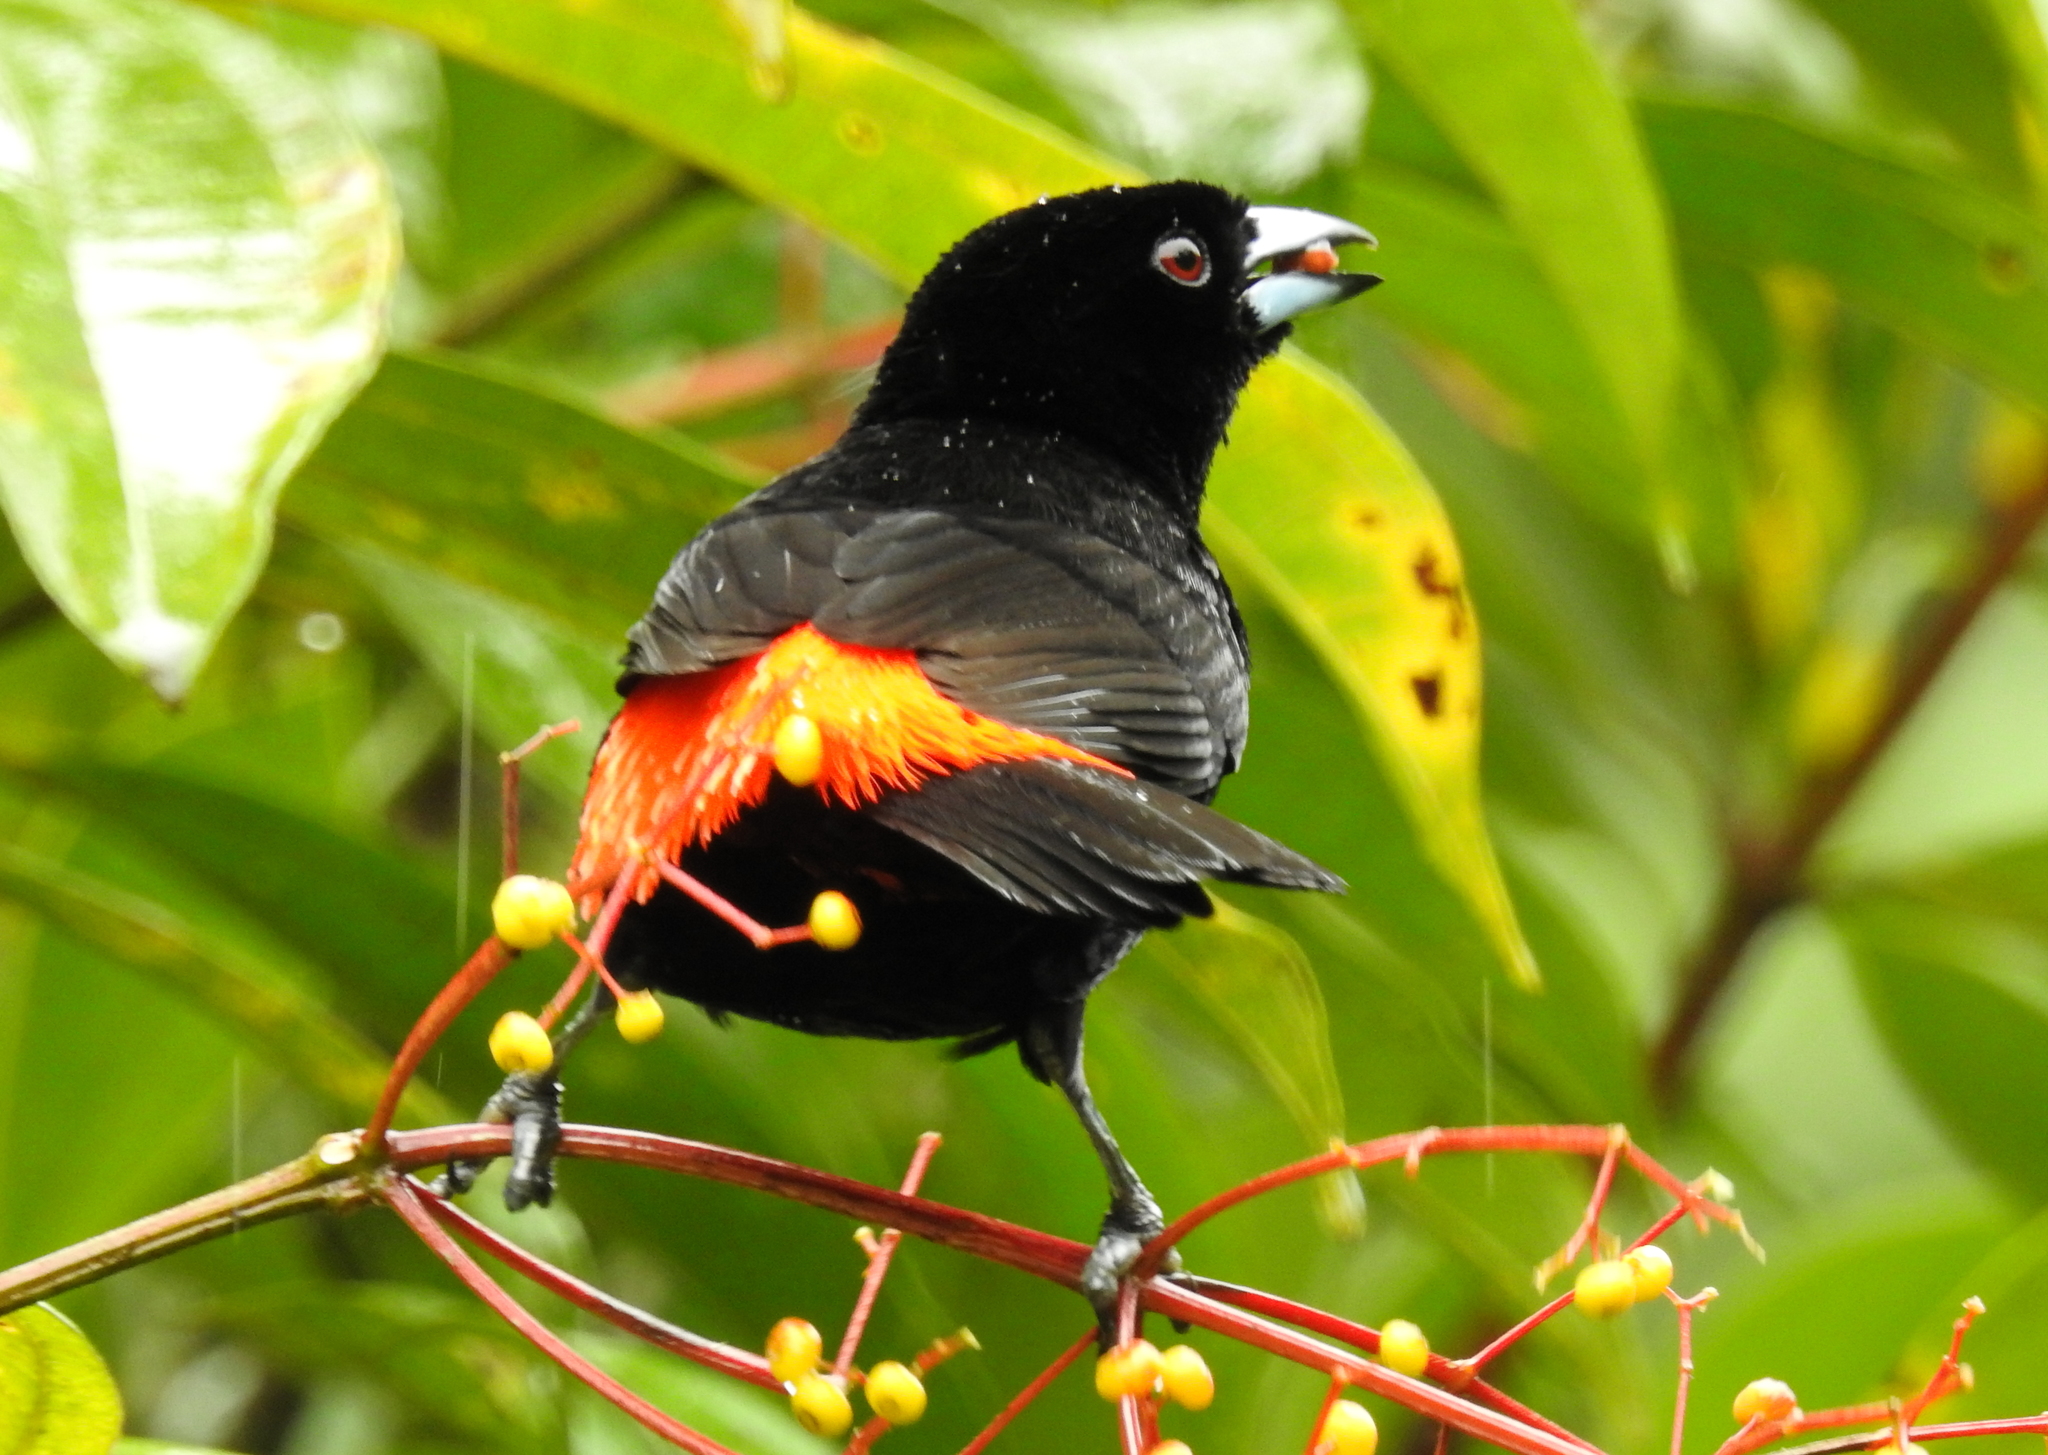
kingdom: Animalia
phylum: Chordata
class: Aves
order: Passeriformes
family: Thraupidae
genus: Ramphocelus
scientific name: Ramphocelus passerinii
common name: Passerini's tanager
